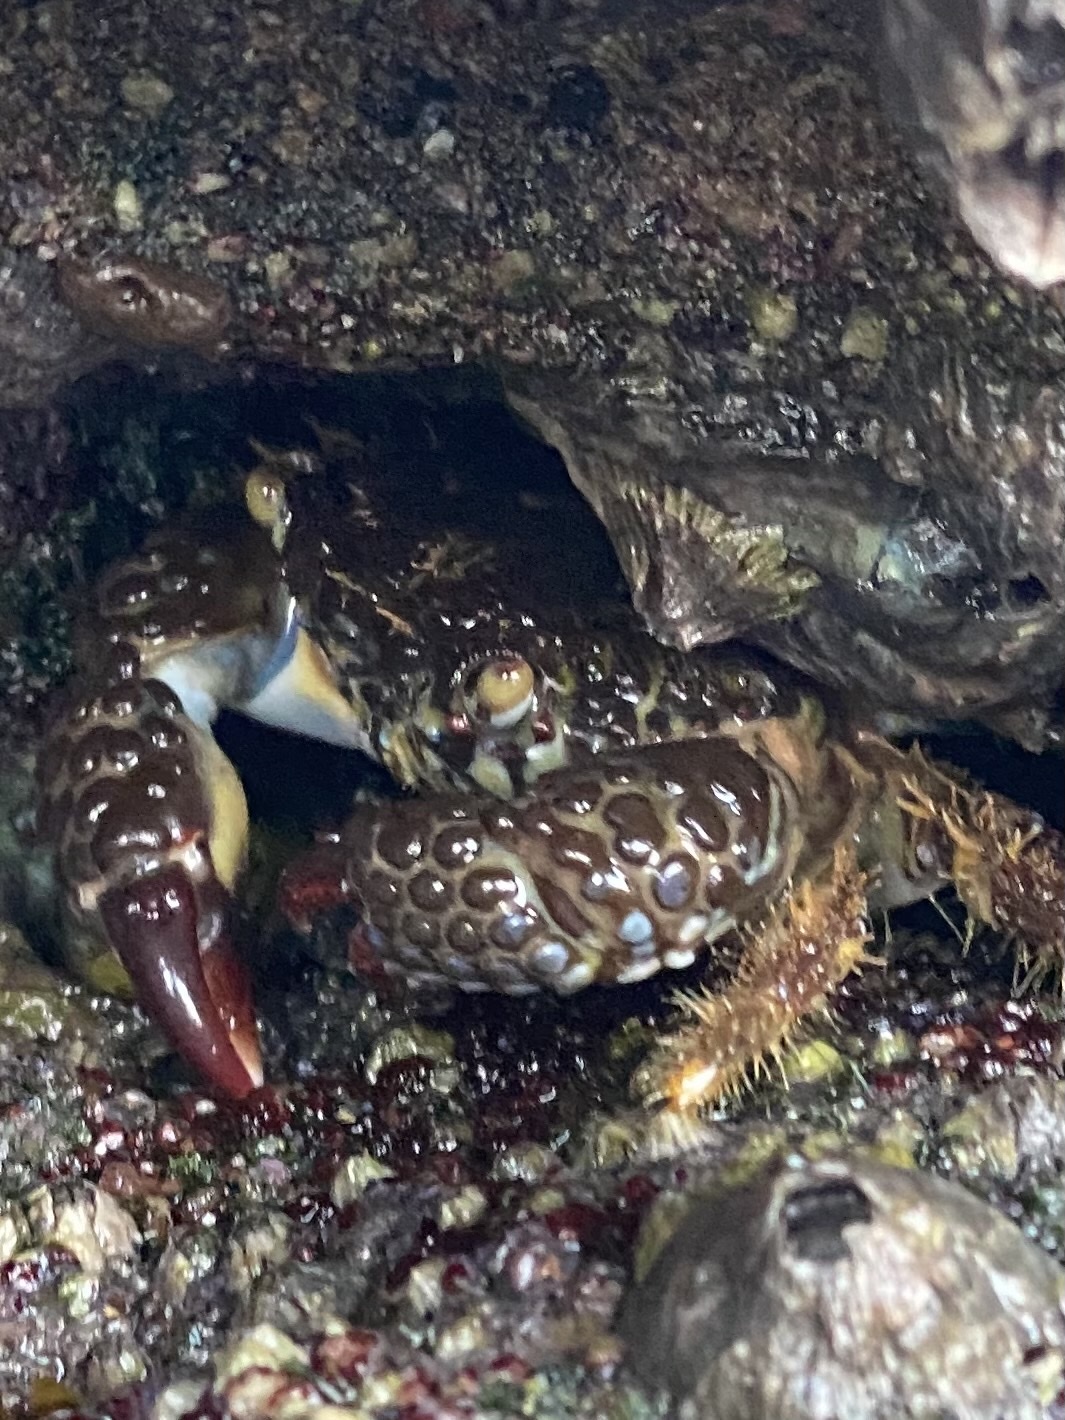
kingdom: Animalia
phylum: Arthropoda
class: Malacostraca
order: Decapoda
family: Eriphiidae
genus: Eriphia
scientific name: Eriphia squamata
